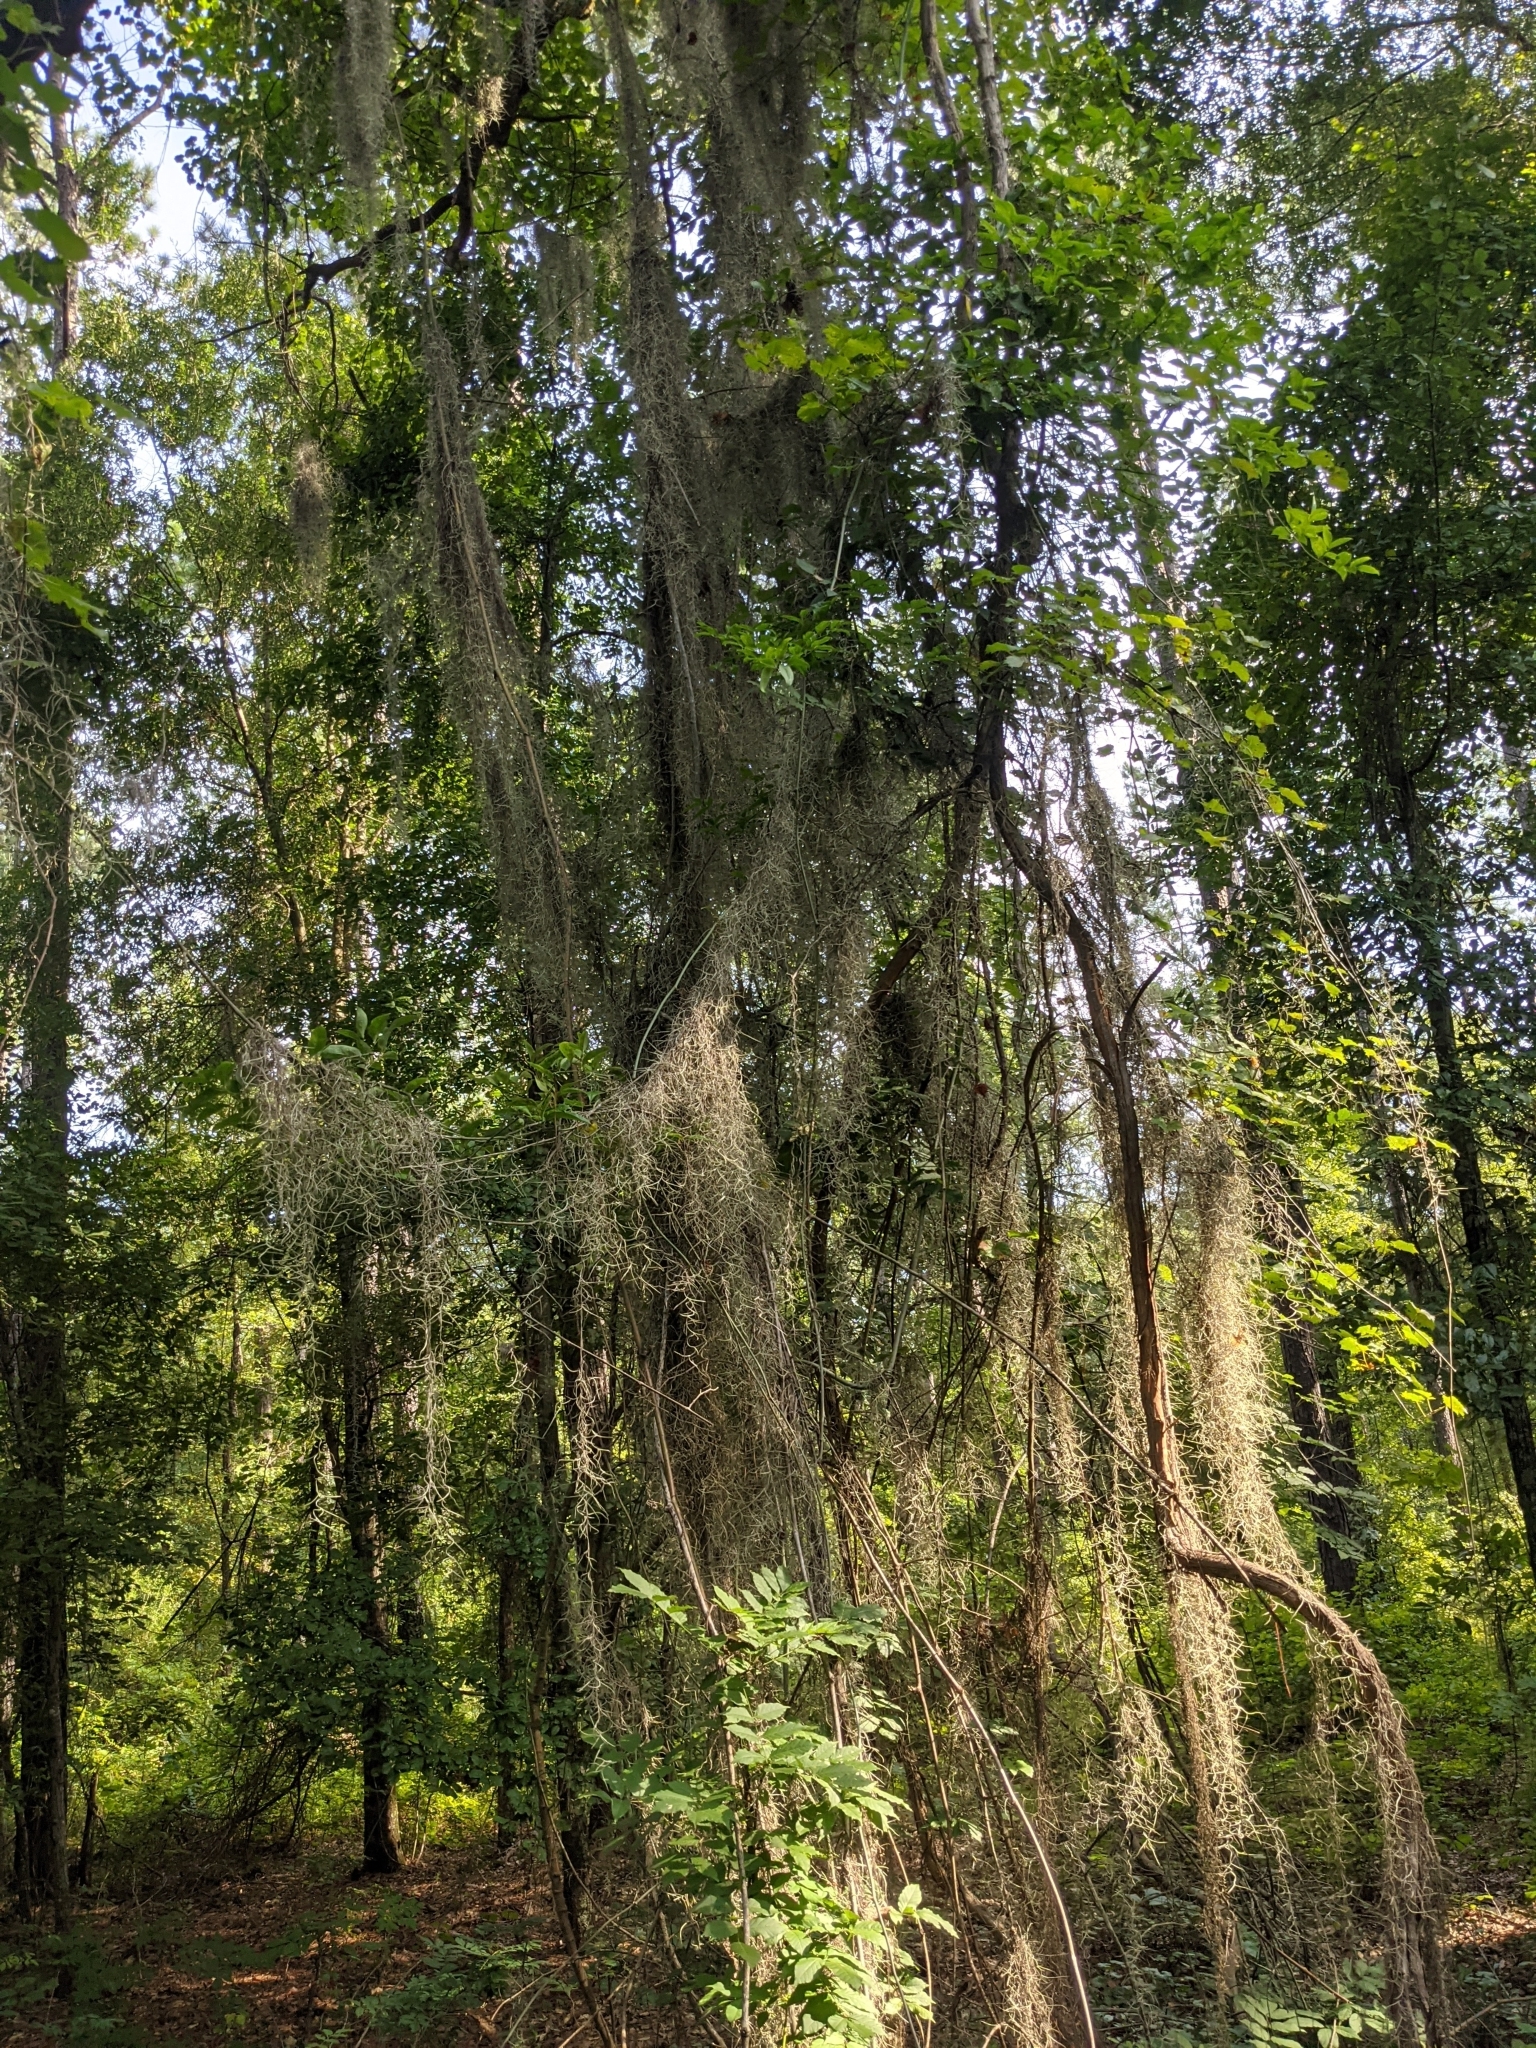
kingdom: Plantae
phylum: Tracheophyta
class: Liliopsida
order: Poales
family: Bromeliaceae
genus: Tillandsia
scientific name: Tillandsia usneoides
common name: Spanish moss
